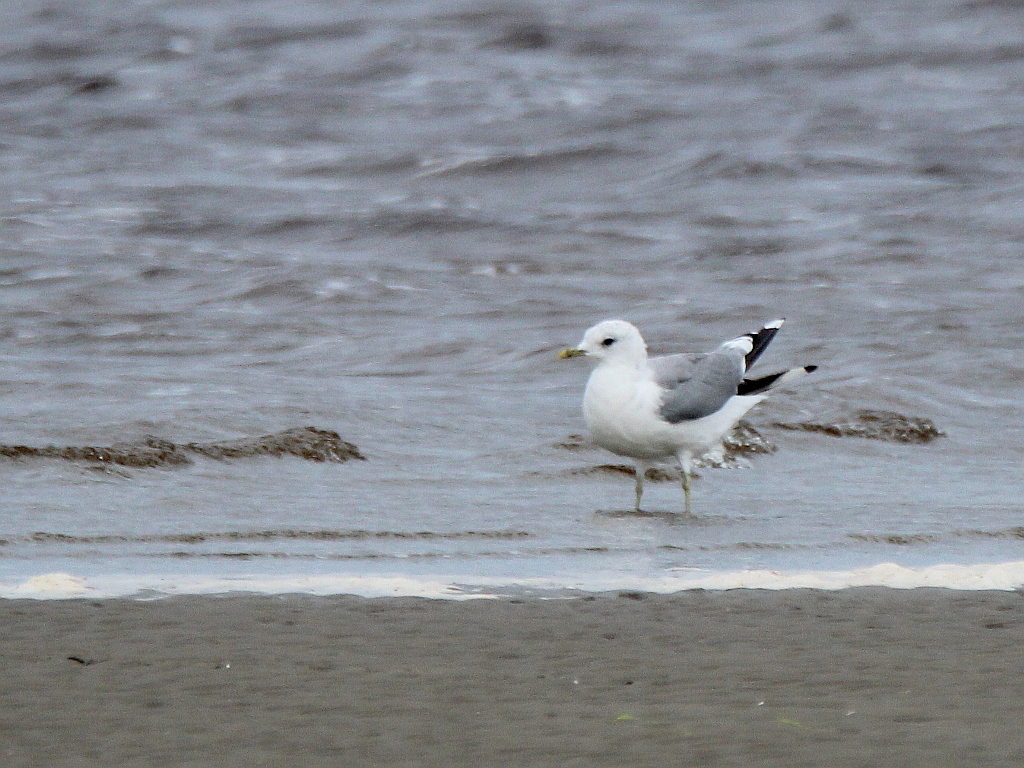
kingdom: Animalia
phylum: Chordata
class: Aves
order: Charadriiformes
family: Laridae
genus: Larus
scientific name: Larus canus
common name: Mew gull
